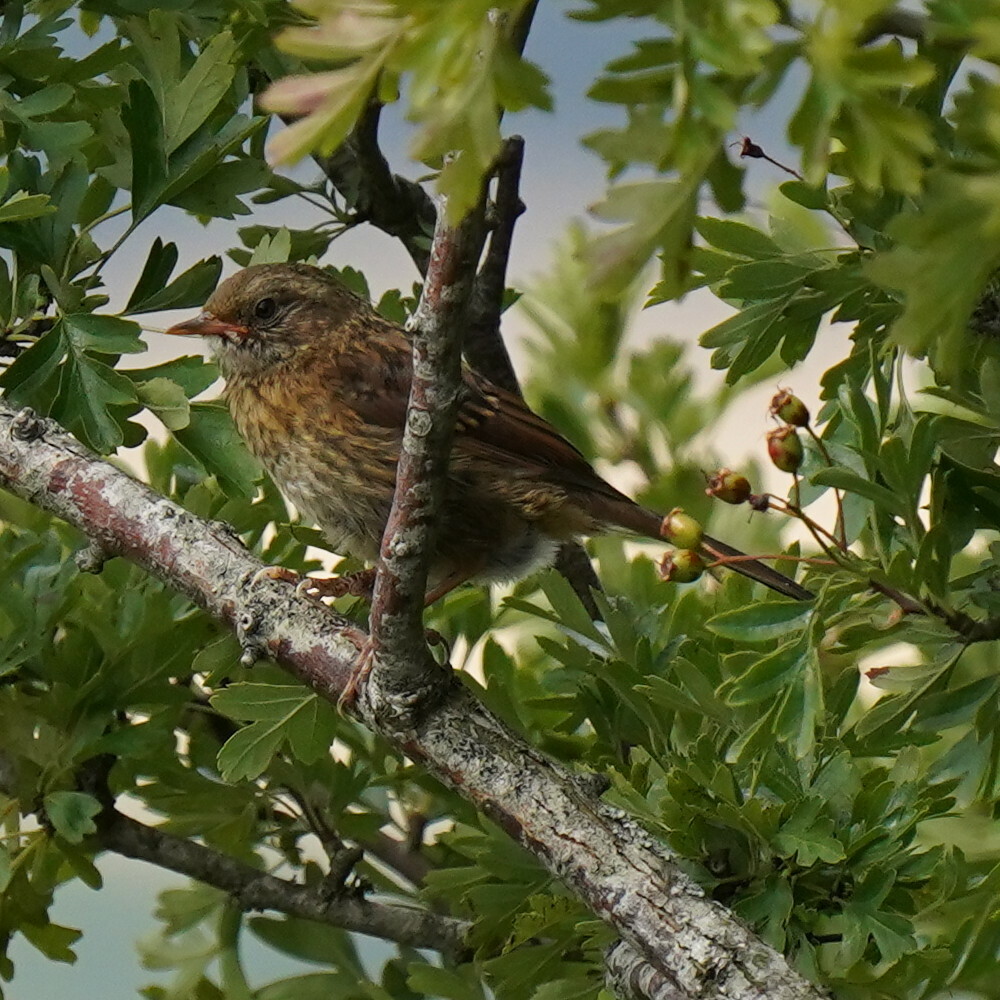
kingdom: Animalia
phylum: Chordata
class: Aves
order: Passeriformes
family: Prunellidae
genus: Prunella
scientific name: Prunella modularis
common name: Dunnock
